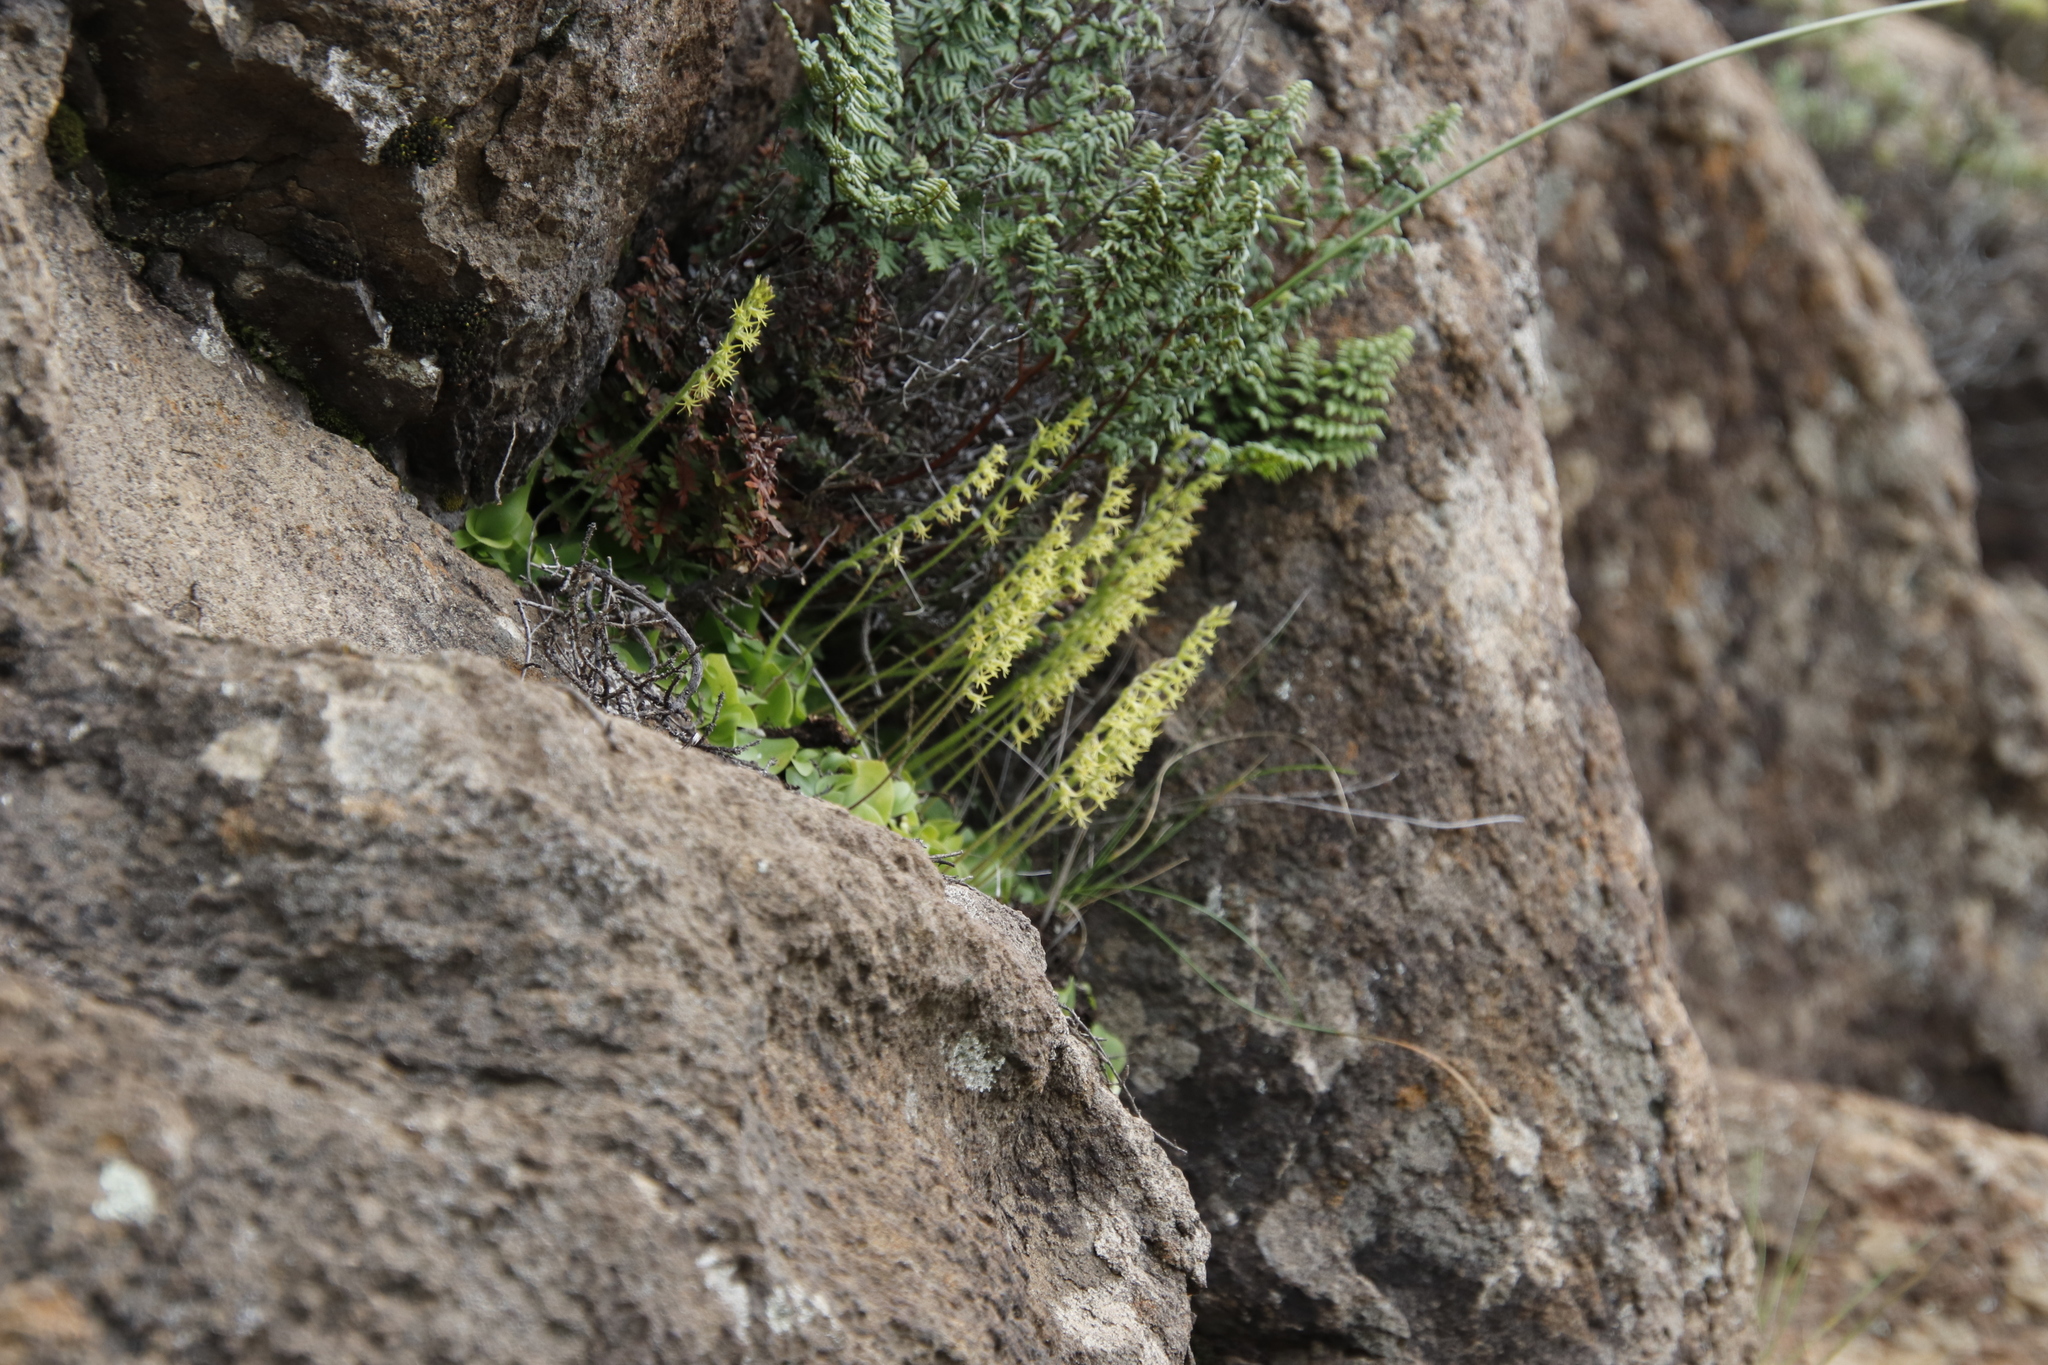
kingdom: Plantae
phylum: Tracheophyta
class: Liliopsida
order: Asparagales
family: Orchidaceae
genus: Holothrix
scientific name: Holothrix incurva
